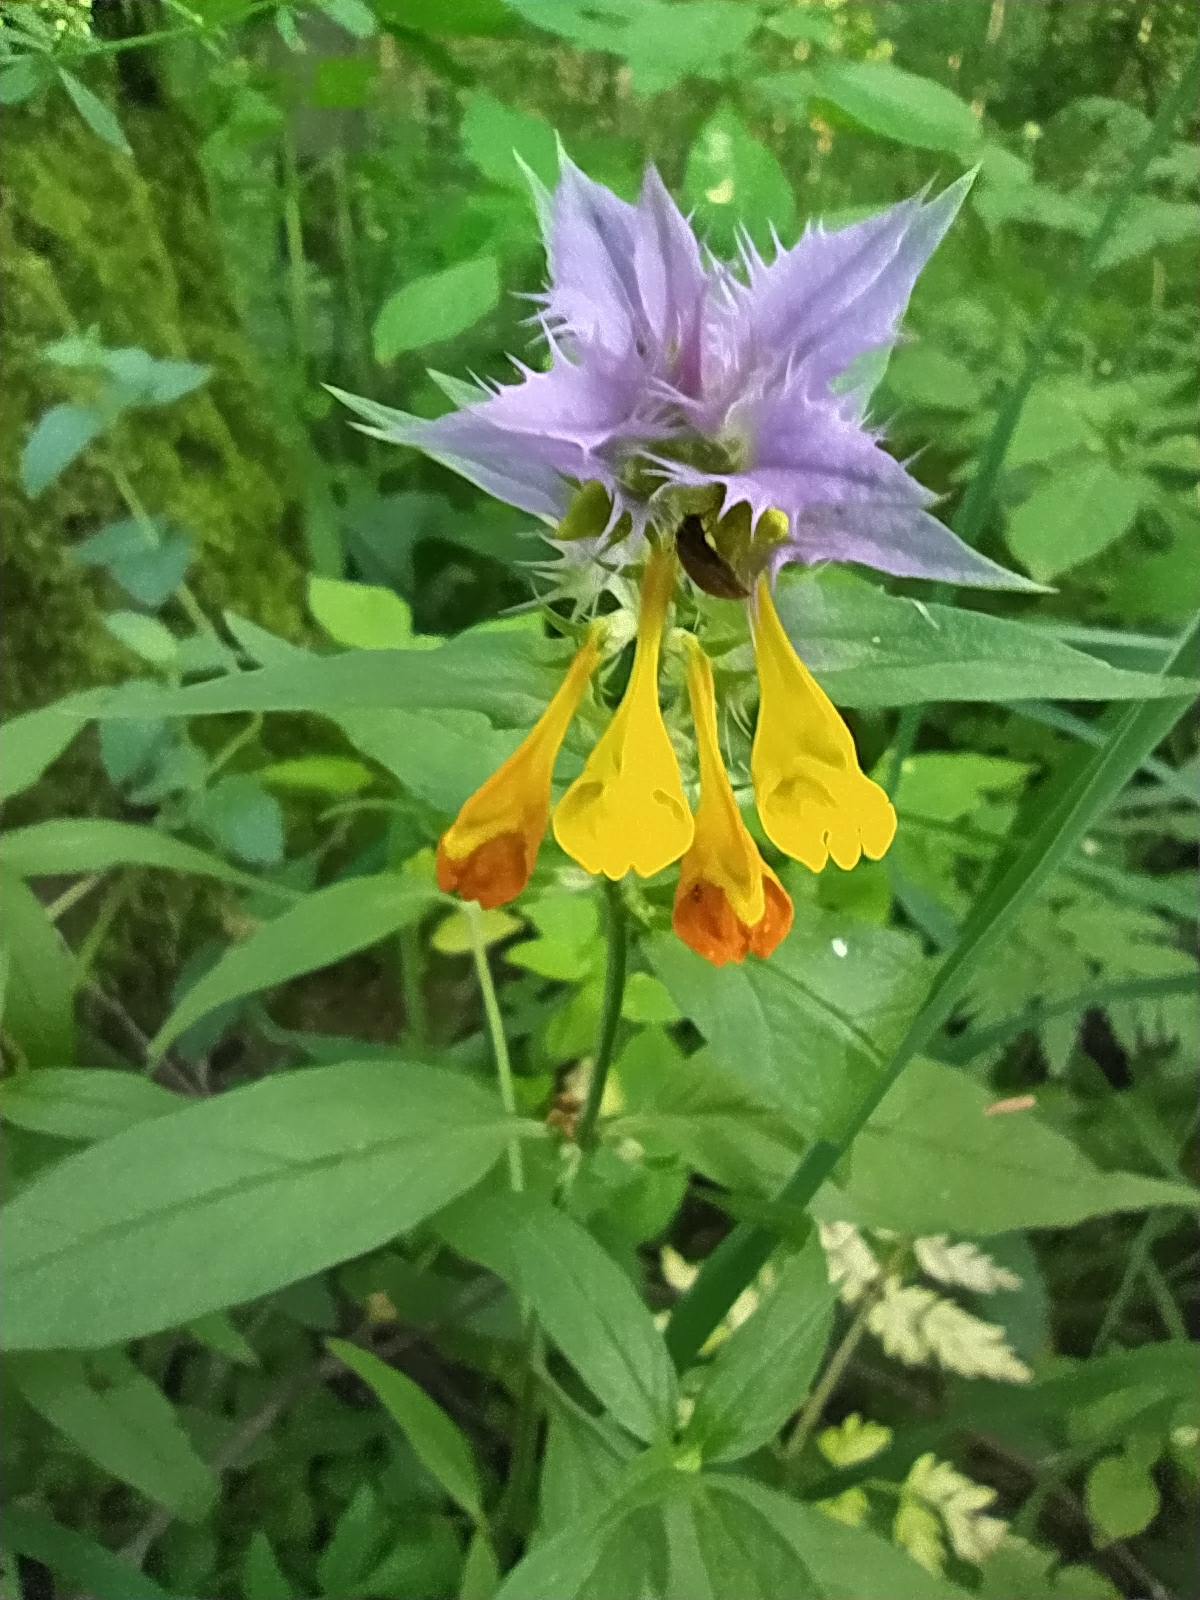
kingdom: Plantae
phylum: Tracheophyta
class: Magnoliopsida
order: Lamiales
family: Orobanchaceae
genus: Melampyrum
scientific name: Melampyrum nemorosum
